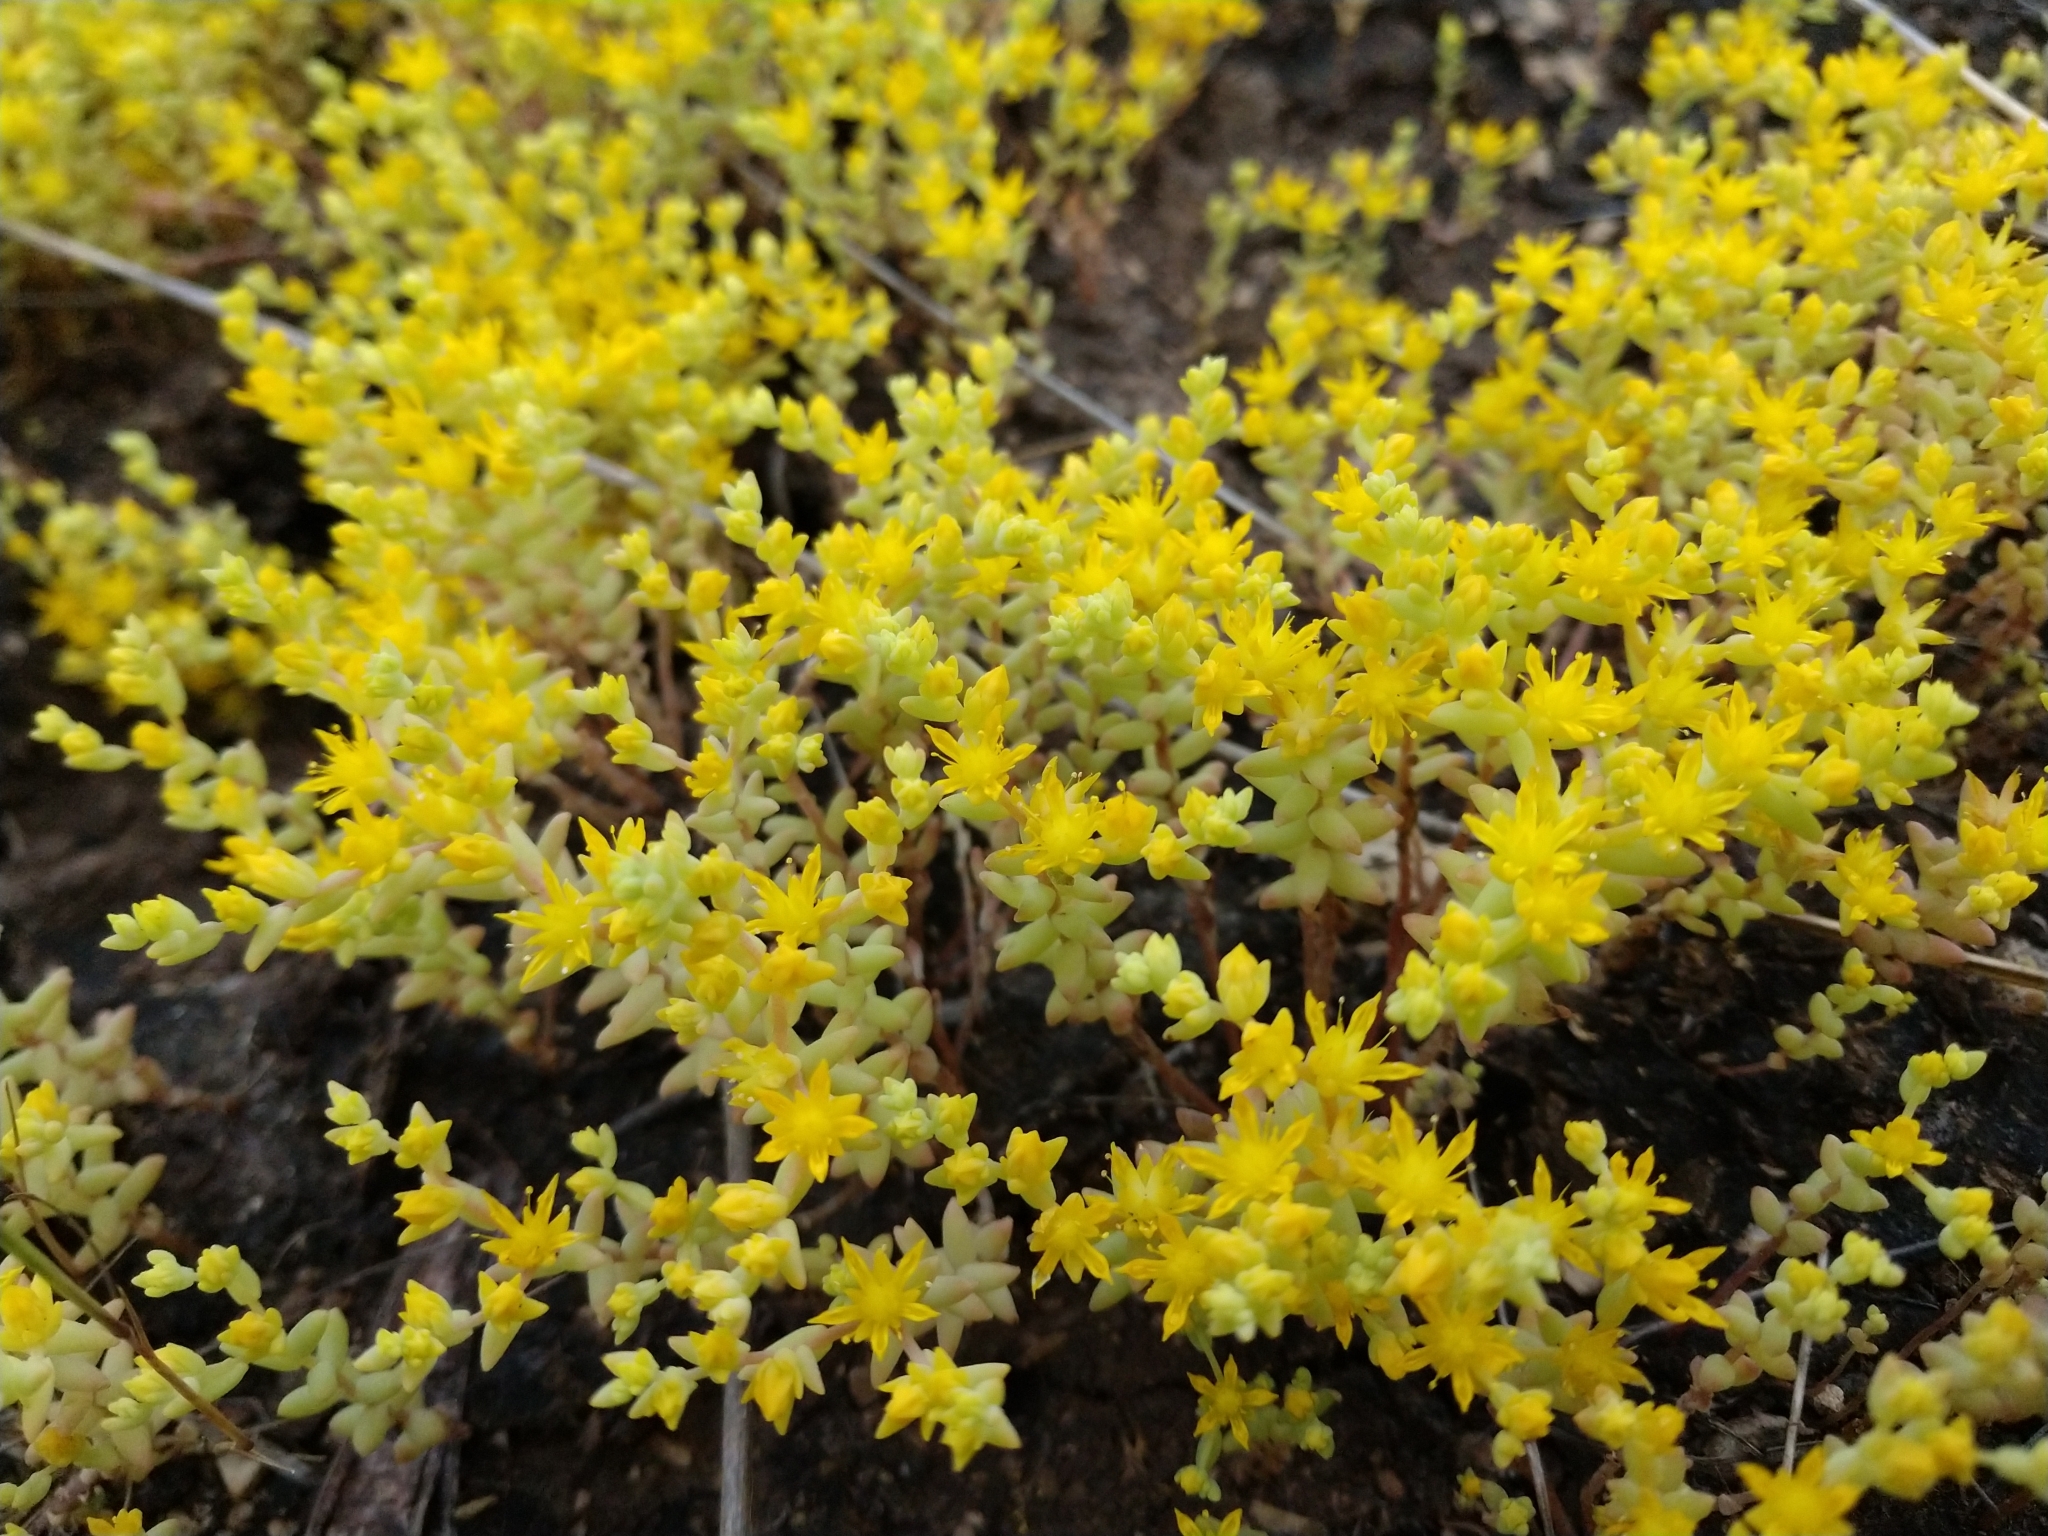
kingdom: Plantae
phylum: Tracheophyta
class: Magnoliopsida
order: Saxifragales
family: Crassulaceae
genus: Sedum
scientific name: Sedum nuttallii
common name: Yellow stonecrop
